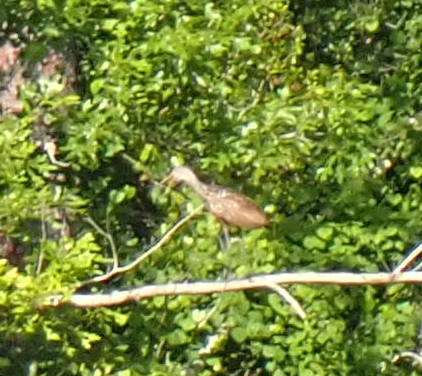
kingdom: Animalia
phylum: Chordata
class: Aves
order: Gruiformes
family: Aramidae
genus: Aramus
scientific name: Aramus guarauna
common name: Limpkin
